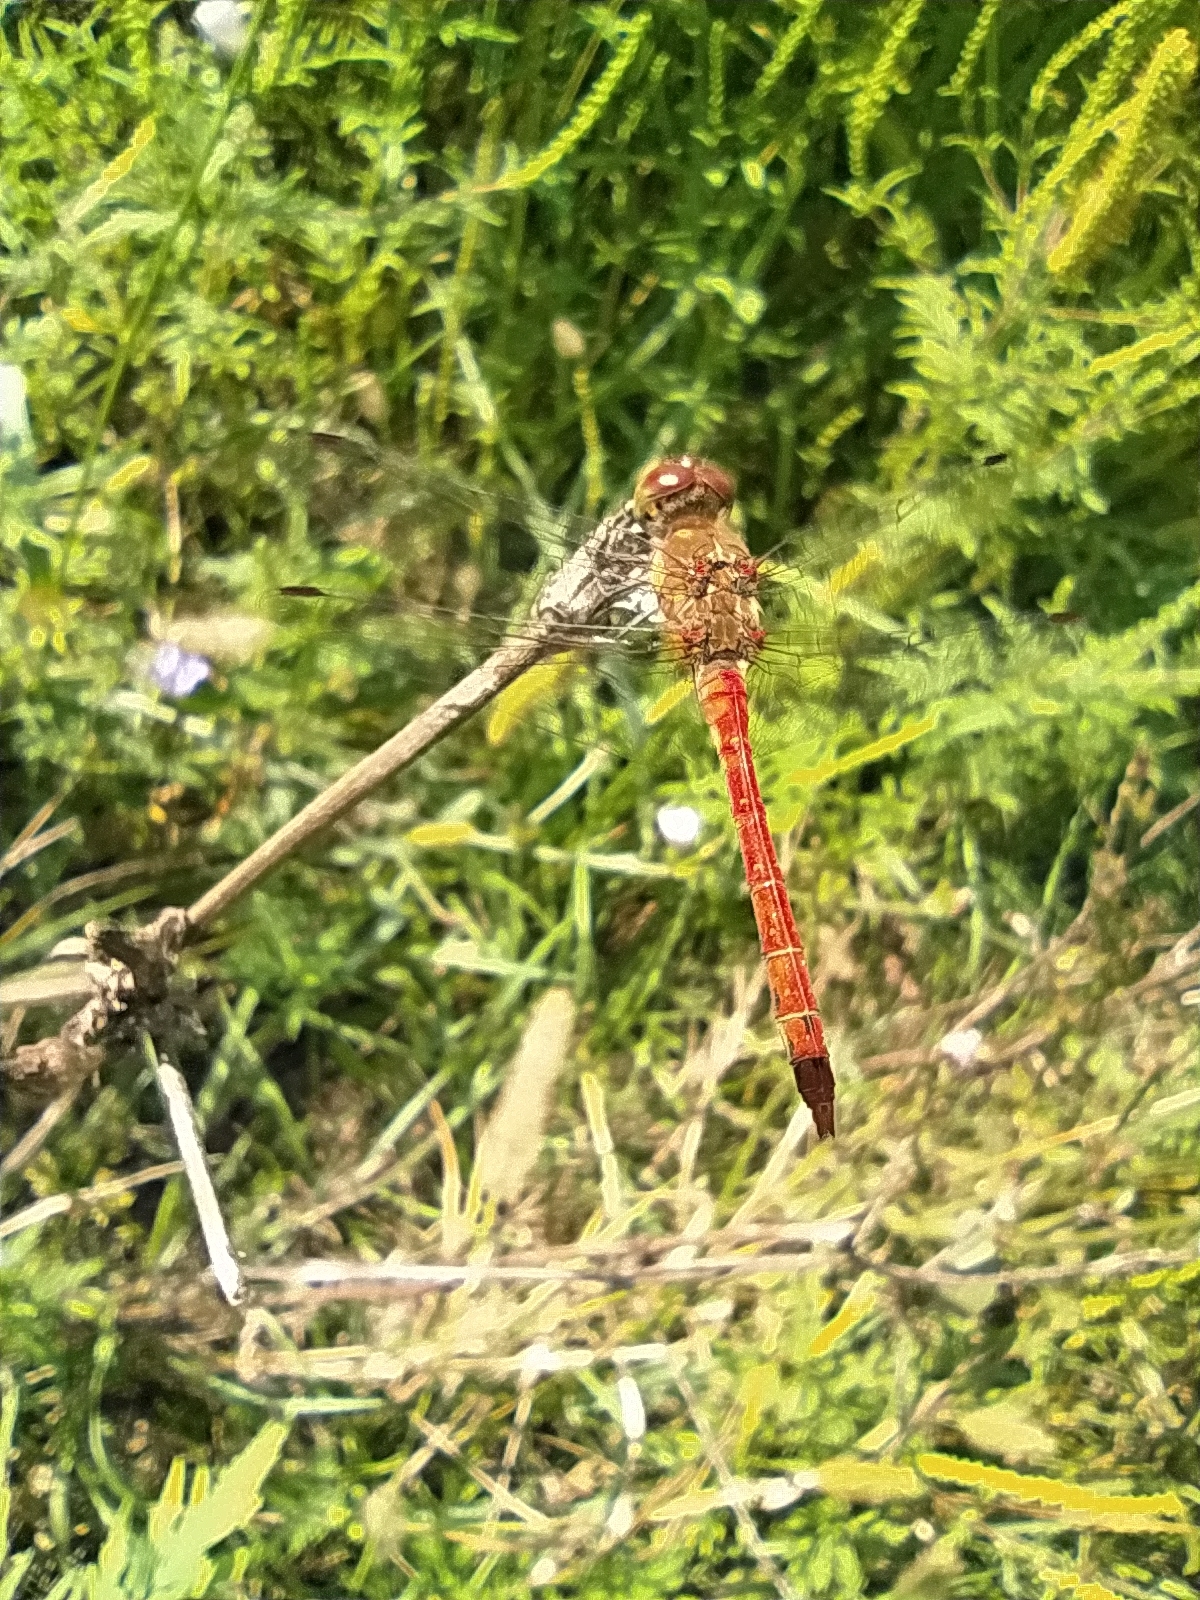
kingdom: Animalia
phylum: Arthropoda
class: Insecta
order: Odonata
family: Libellulidae
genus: Sympetrum
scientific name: Sympetrum striolatum
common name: Common darter
